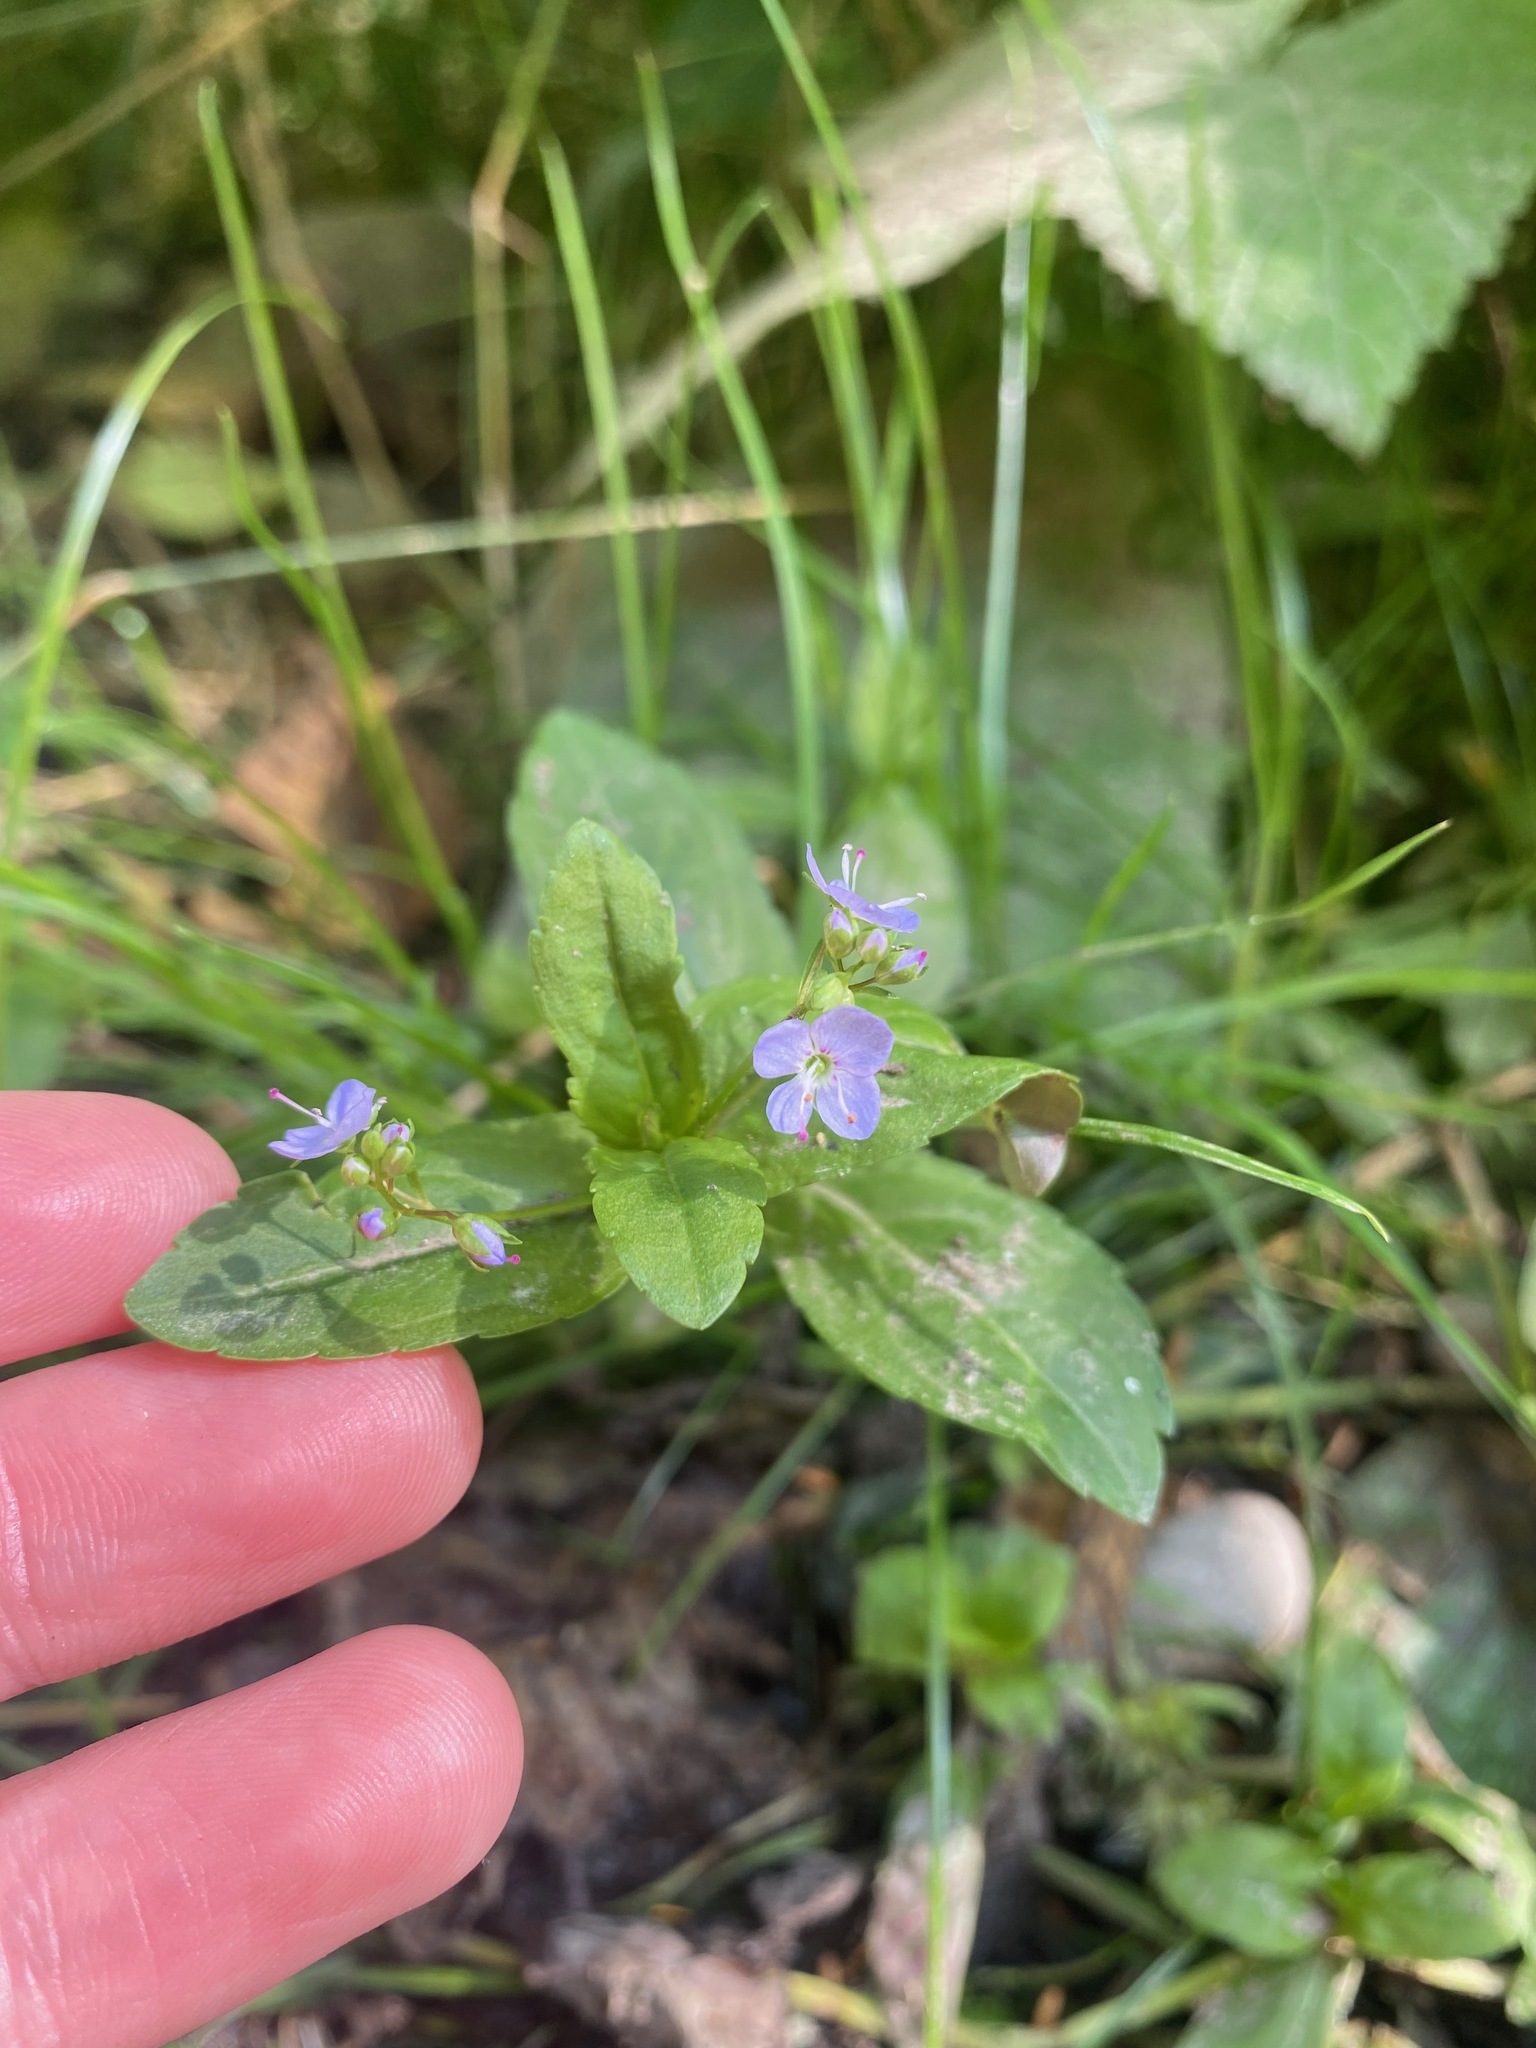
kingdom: Plantae
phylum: Tracheophyta
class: Magnoliopsida
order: Lamiales
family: Plantaginaceae
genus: Veronica
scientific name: Veronica americana
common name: American brooklime
